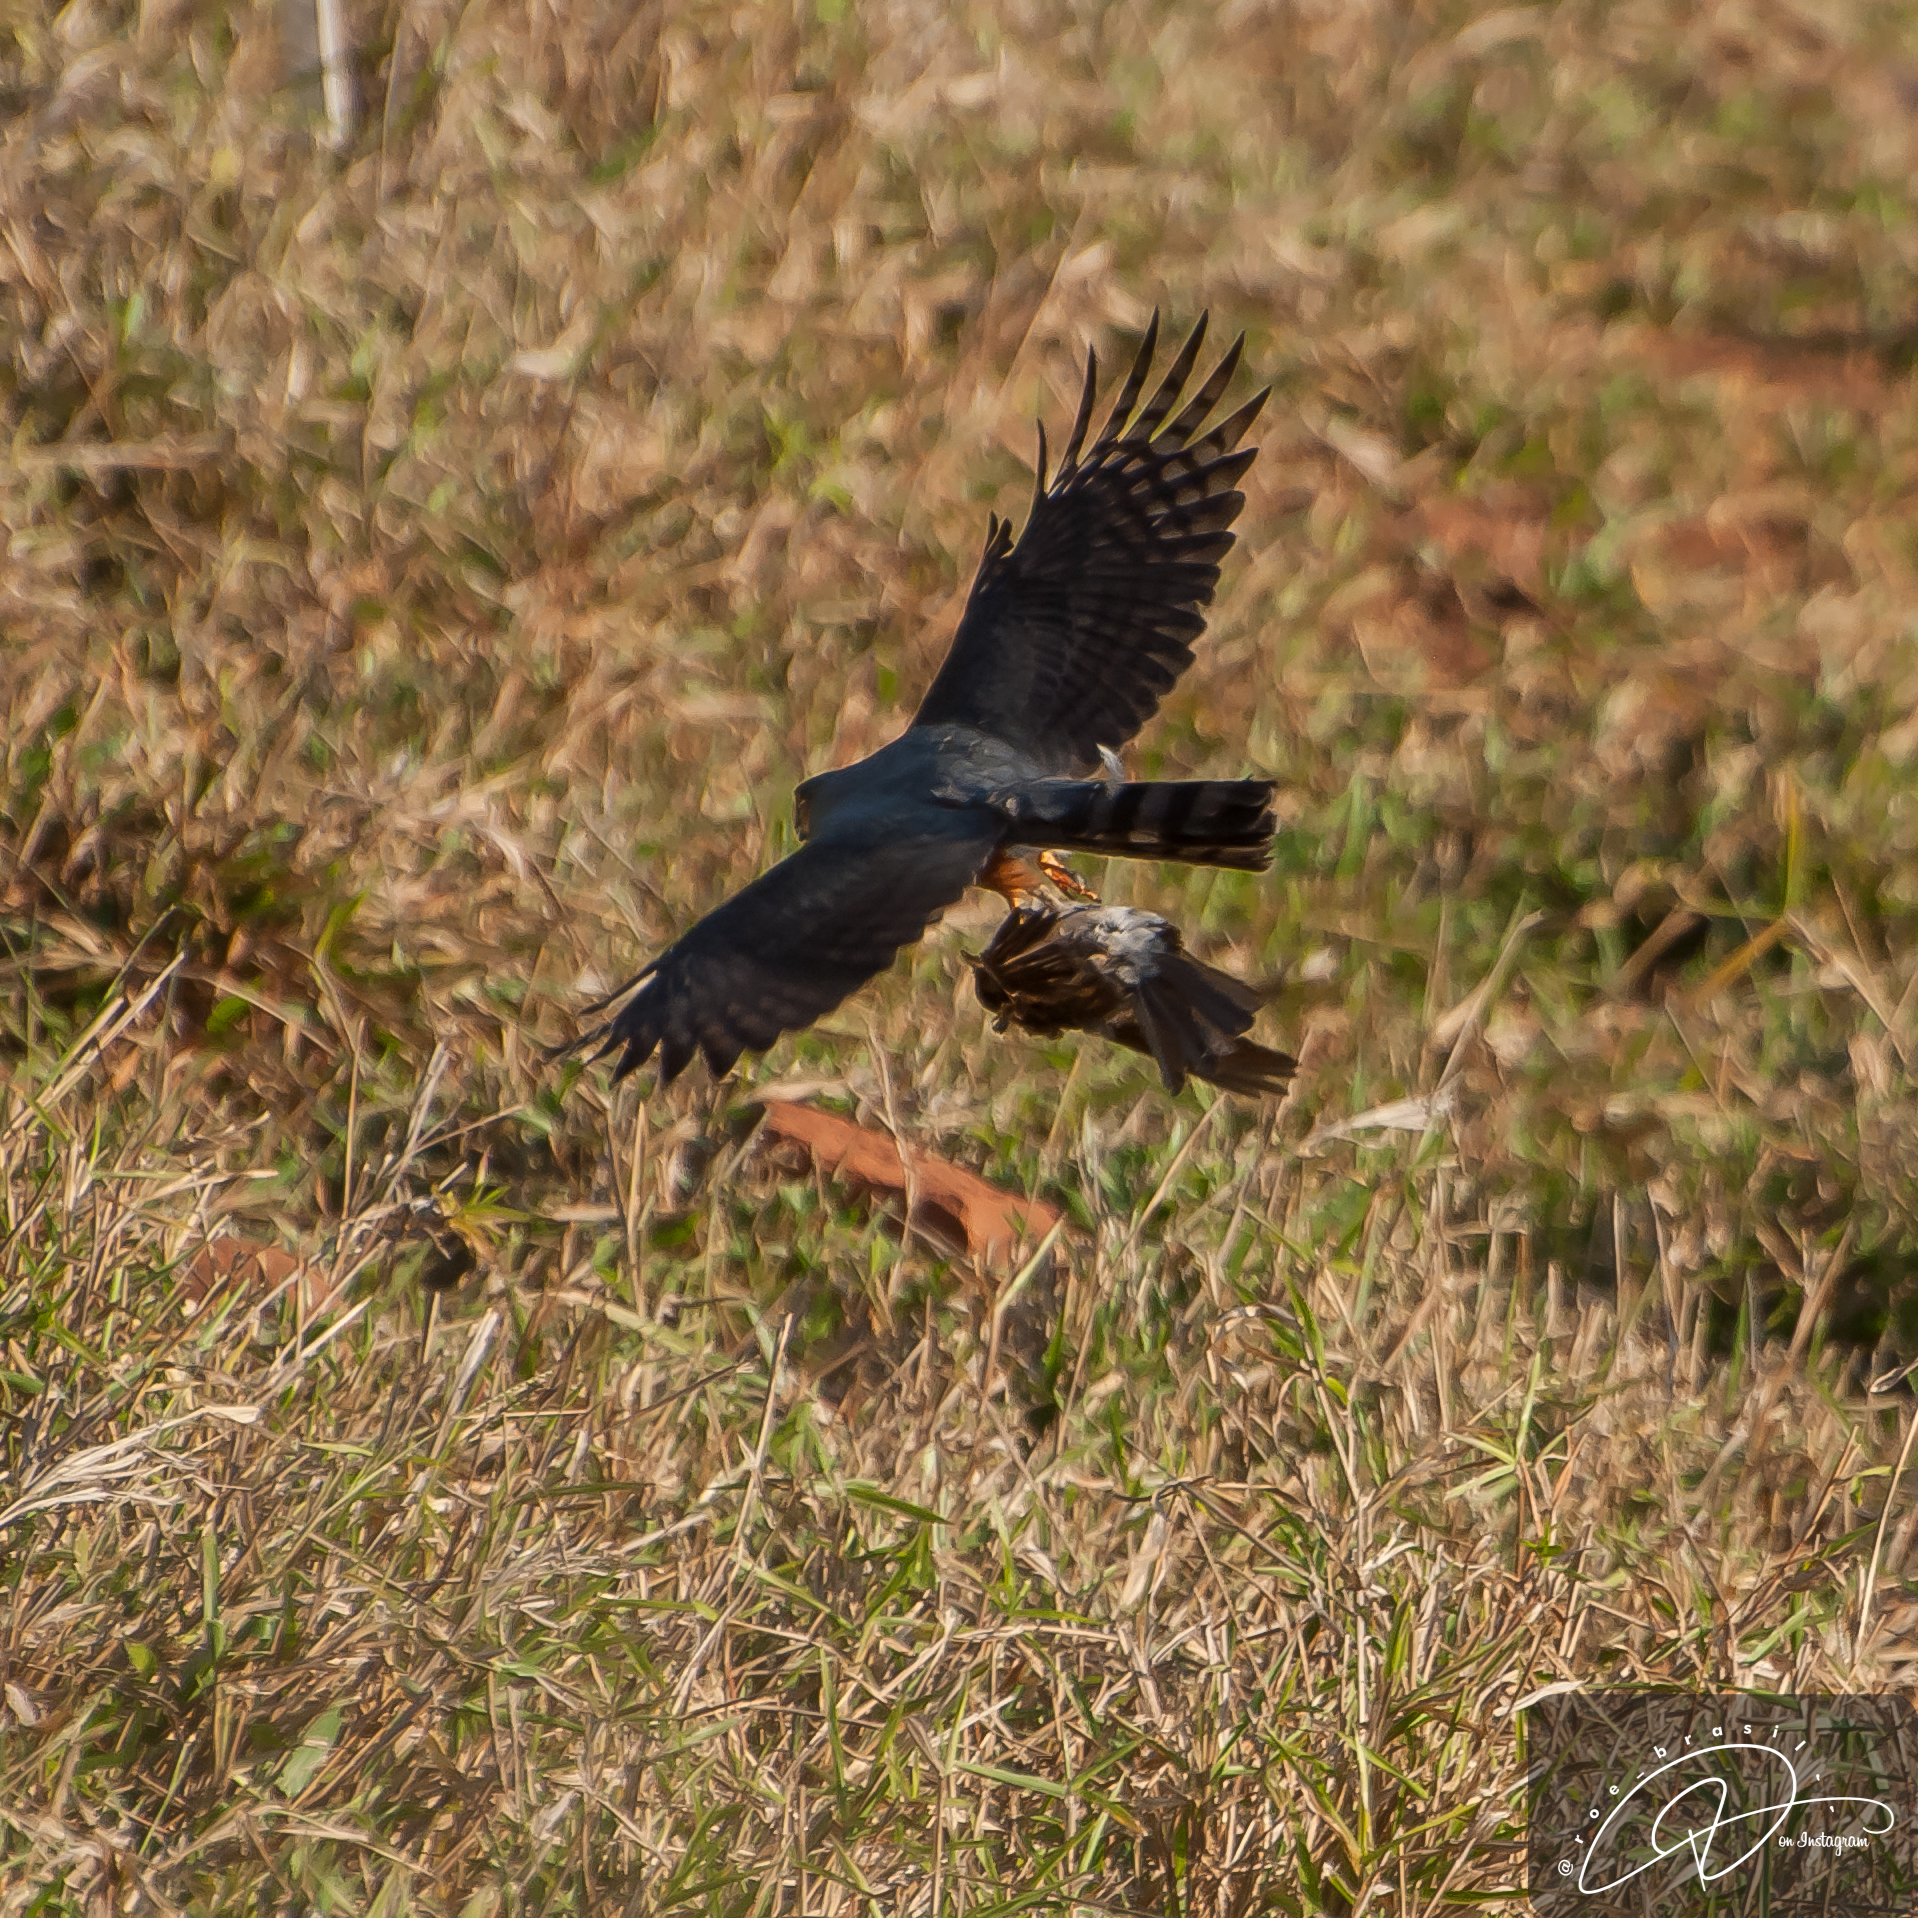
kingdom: Animalia
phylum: Chordata
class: Aves
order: Accipitriformes
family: Accipitridae
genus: Accipiter
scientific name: Accipiter striatus
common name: Sharp-shinned hawk
